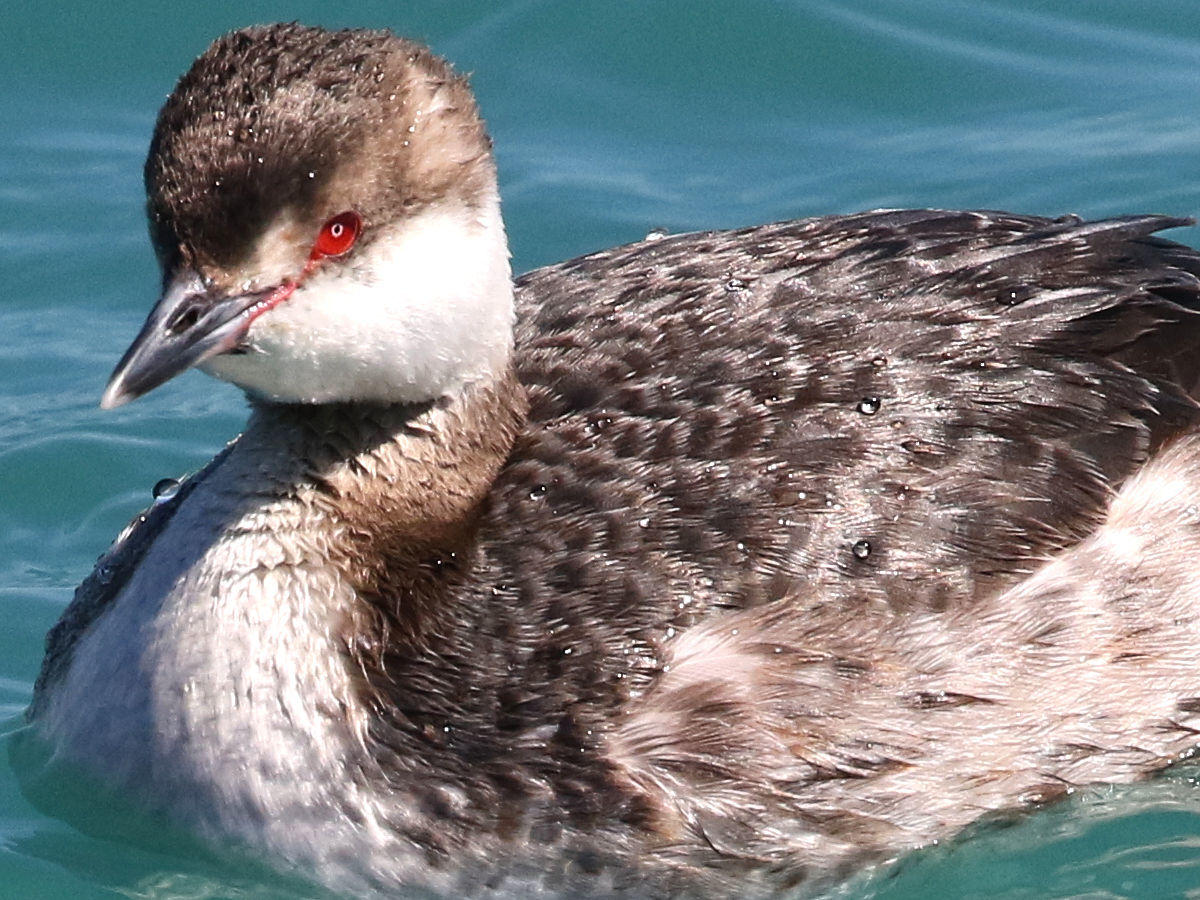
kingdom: Animalia
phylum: Chordata
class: Aves
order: Podicipediformes
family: Podicipedidae
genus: Podiceps
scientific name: Podiceps auritus
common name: Horned grebe
